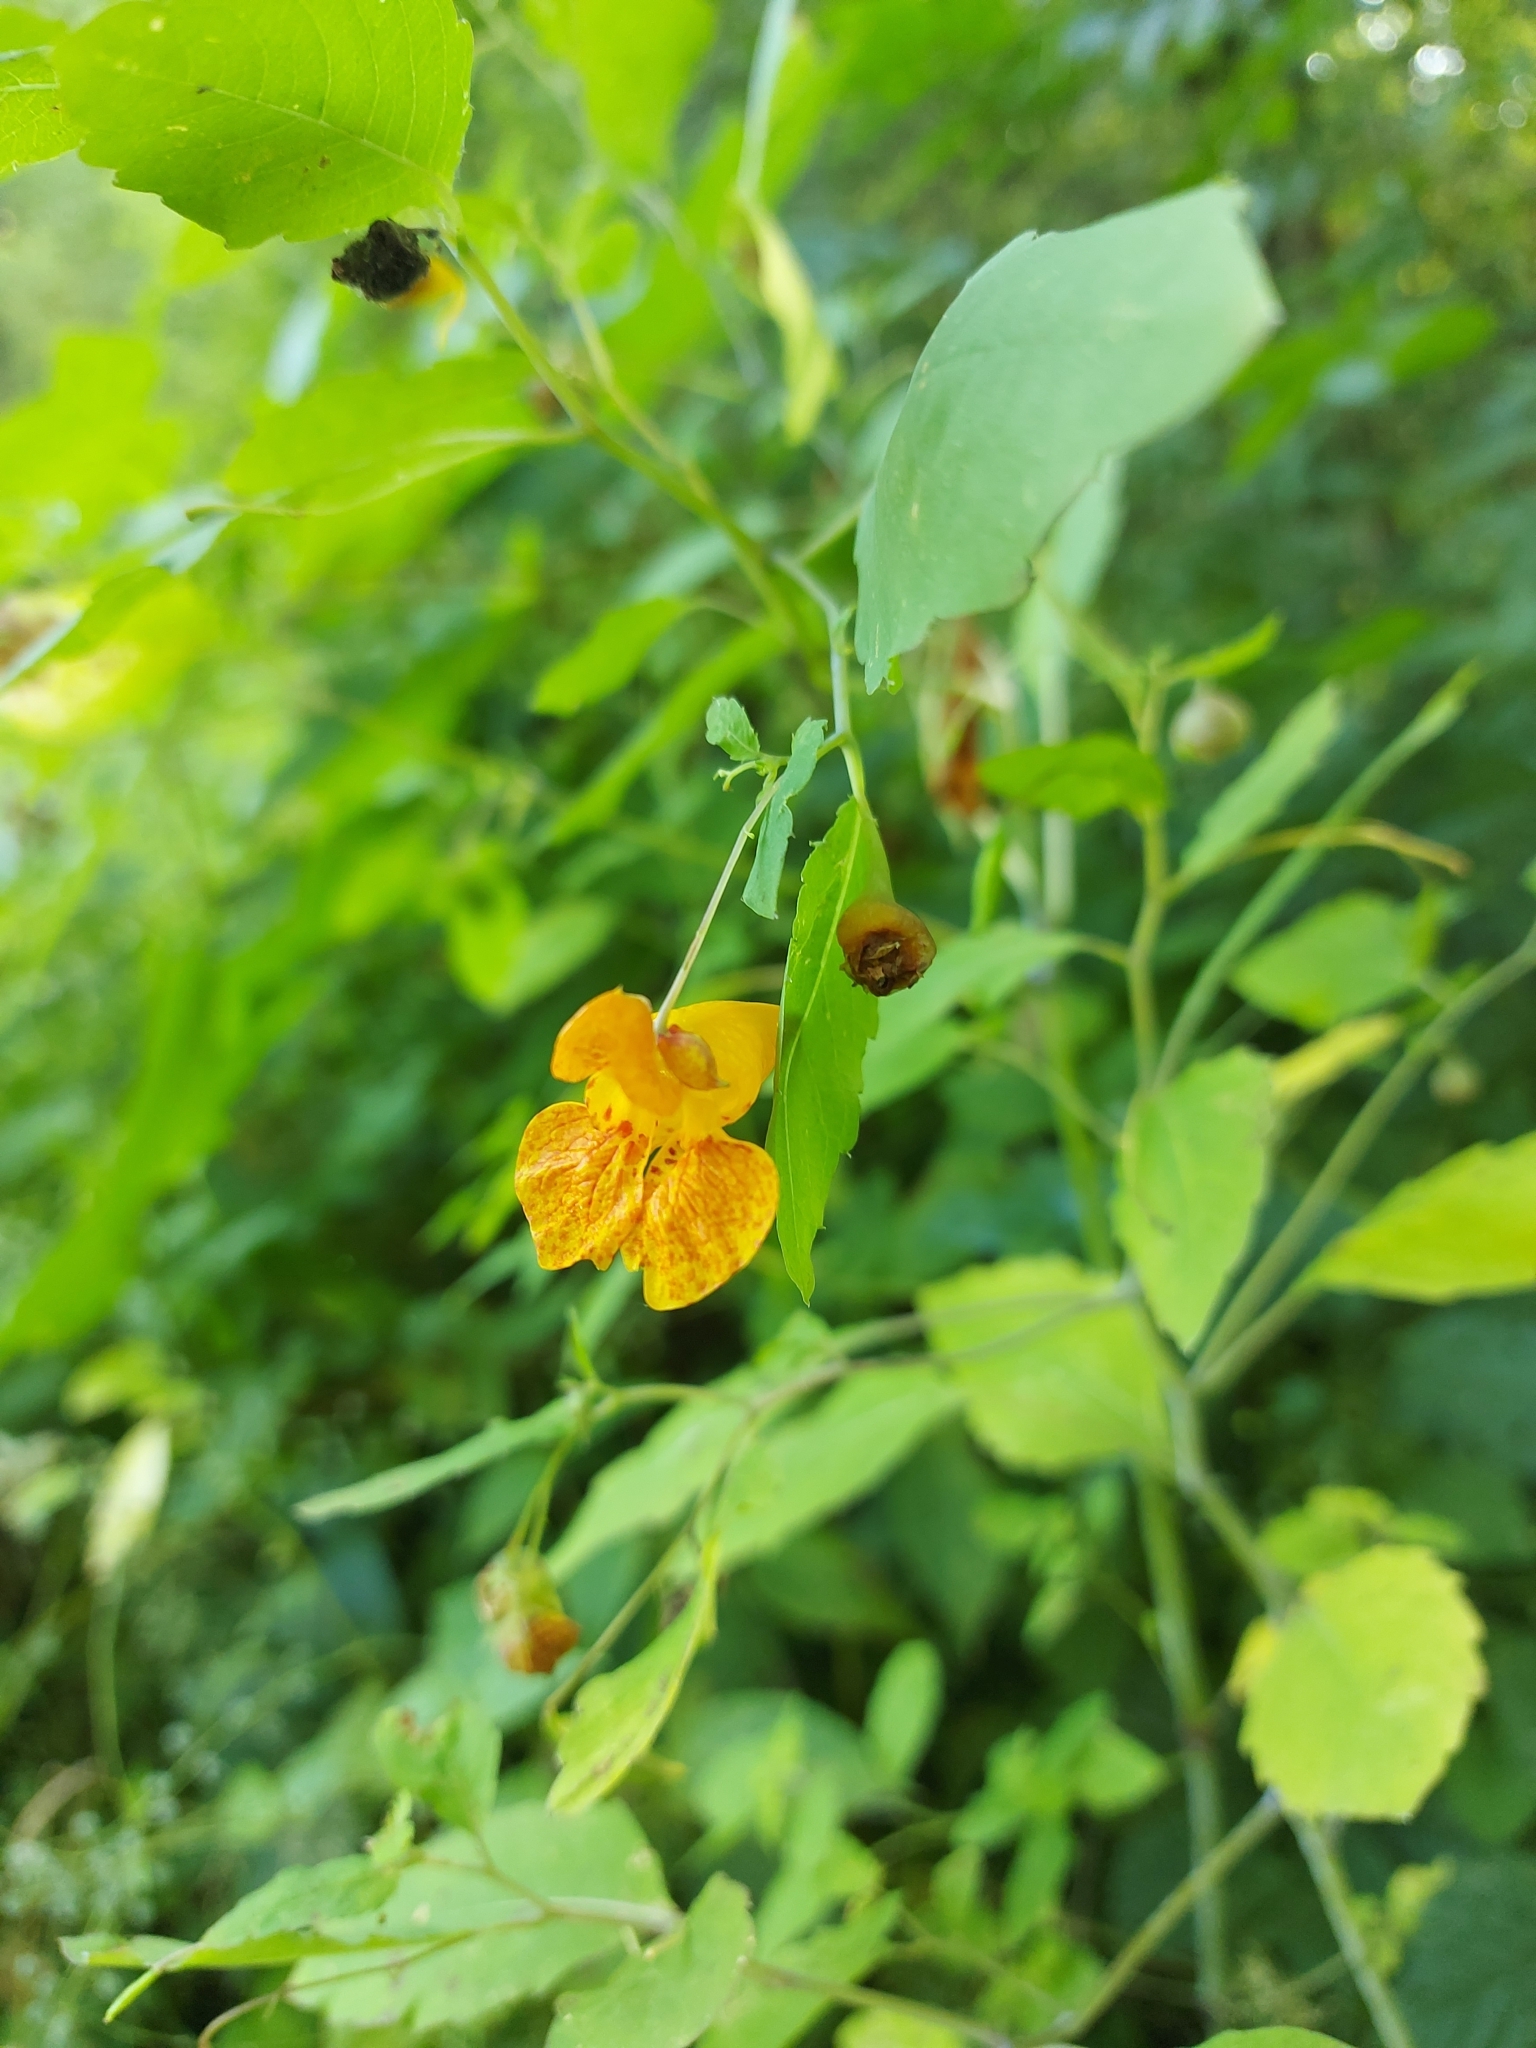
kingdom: Plantae
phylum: Tracheophyta
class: Magnoliopsida
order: Ericales
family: Balsaminaceae
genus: Impatiens
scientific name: Impatiens capensis
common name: Orange balsam
